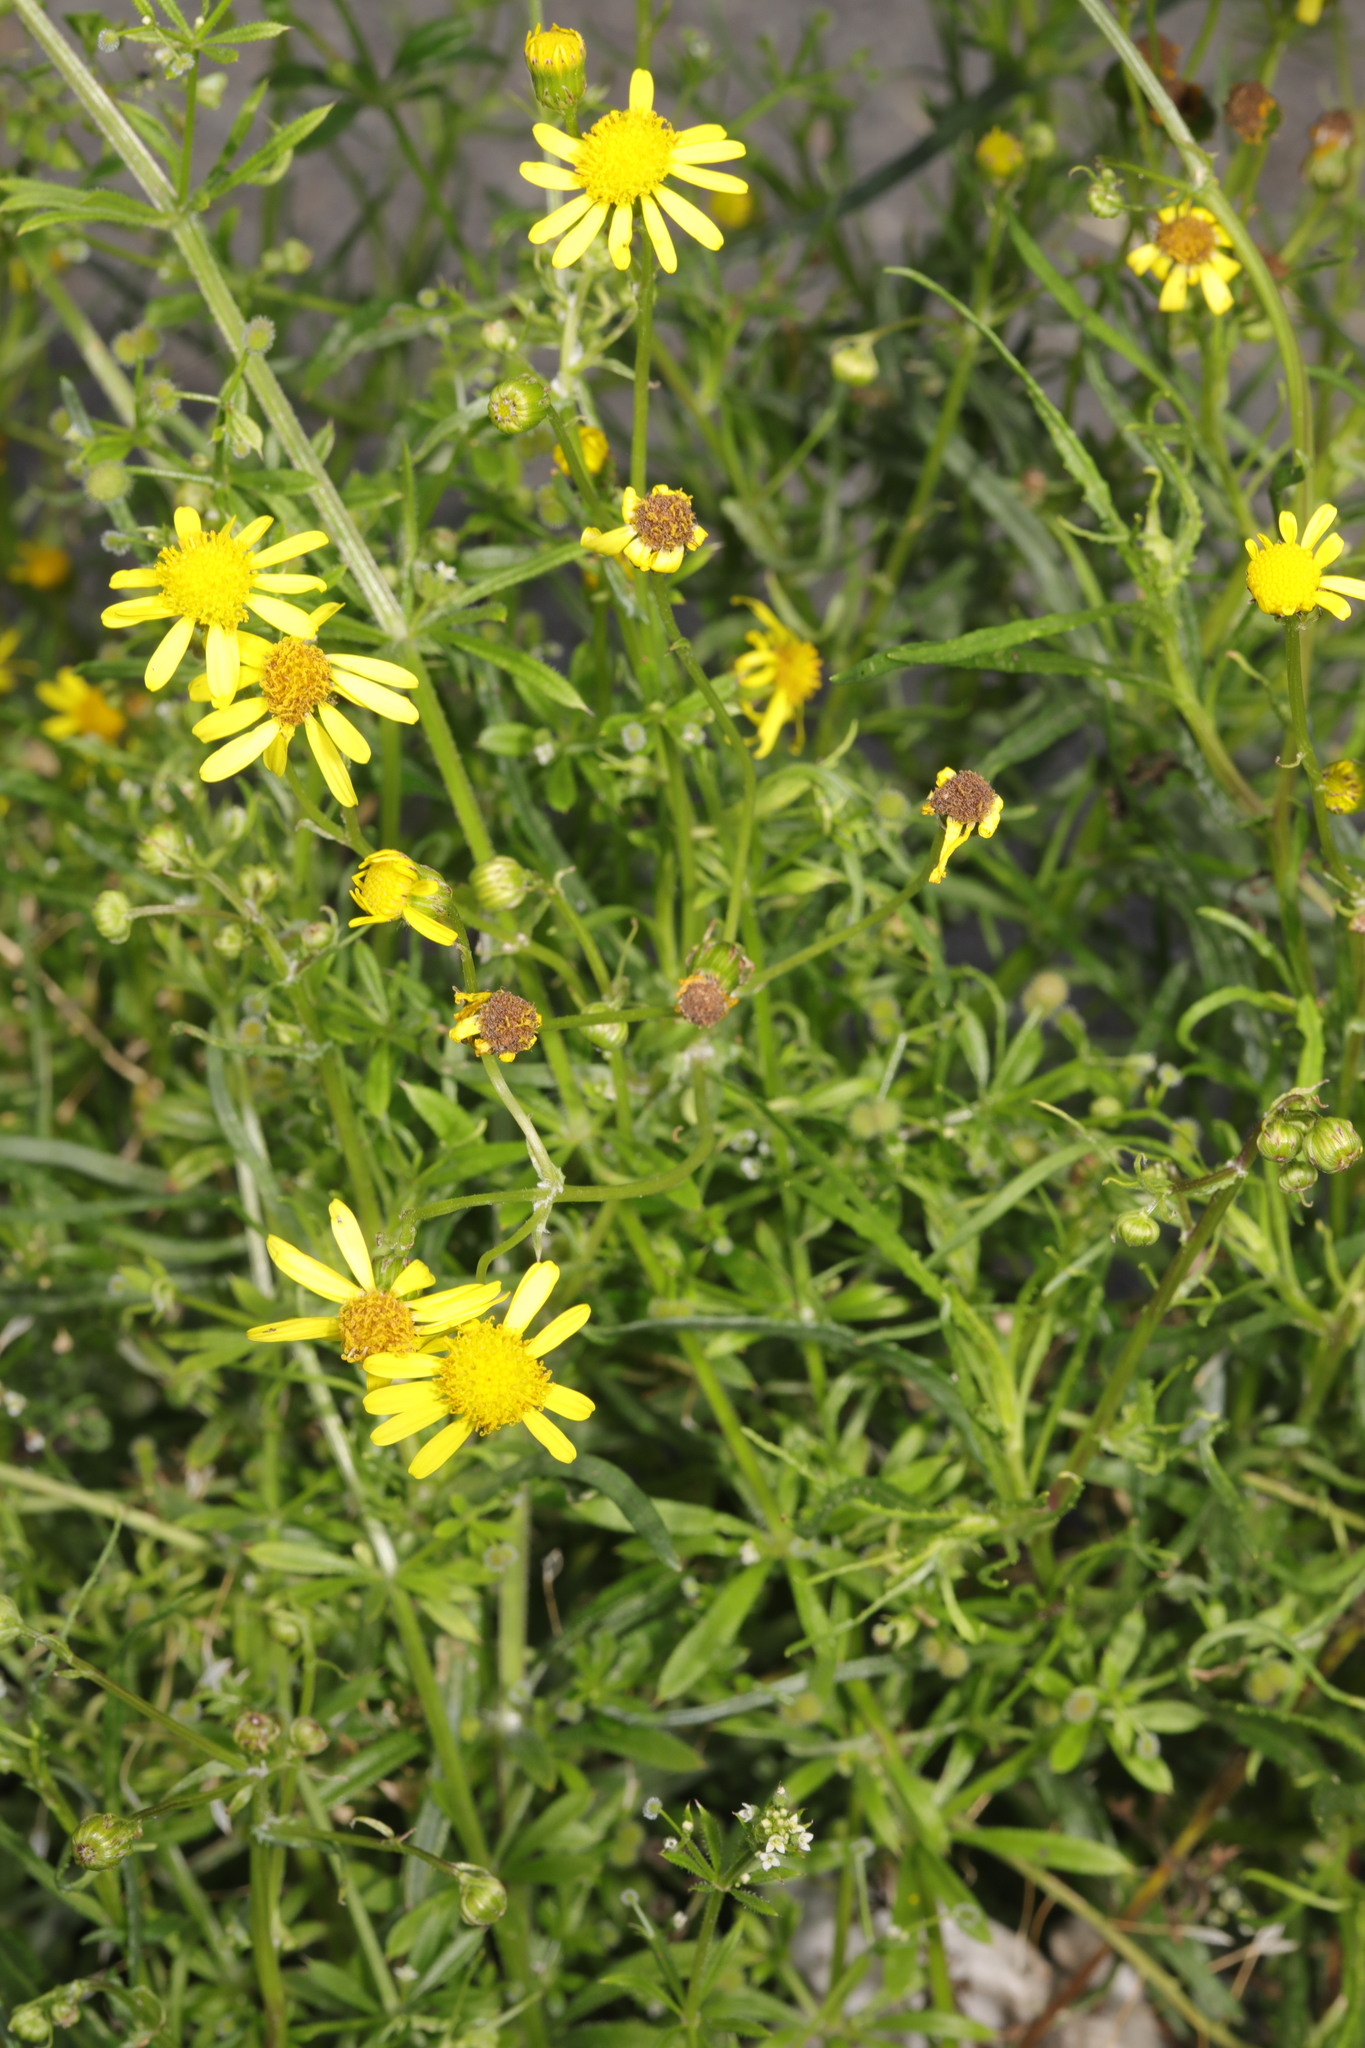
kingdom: Plantae
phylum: Tracheophyta
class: Magnoliopsida
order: Asterales
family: Asteraceae
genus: Senecio
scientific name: Senecio inaequidens
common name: Narrow-leaved ragwort
